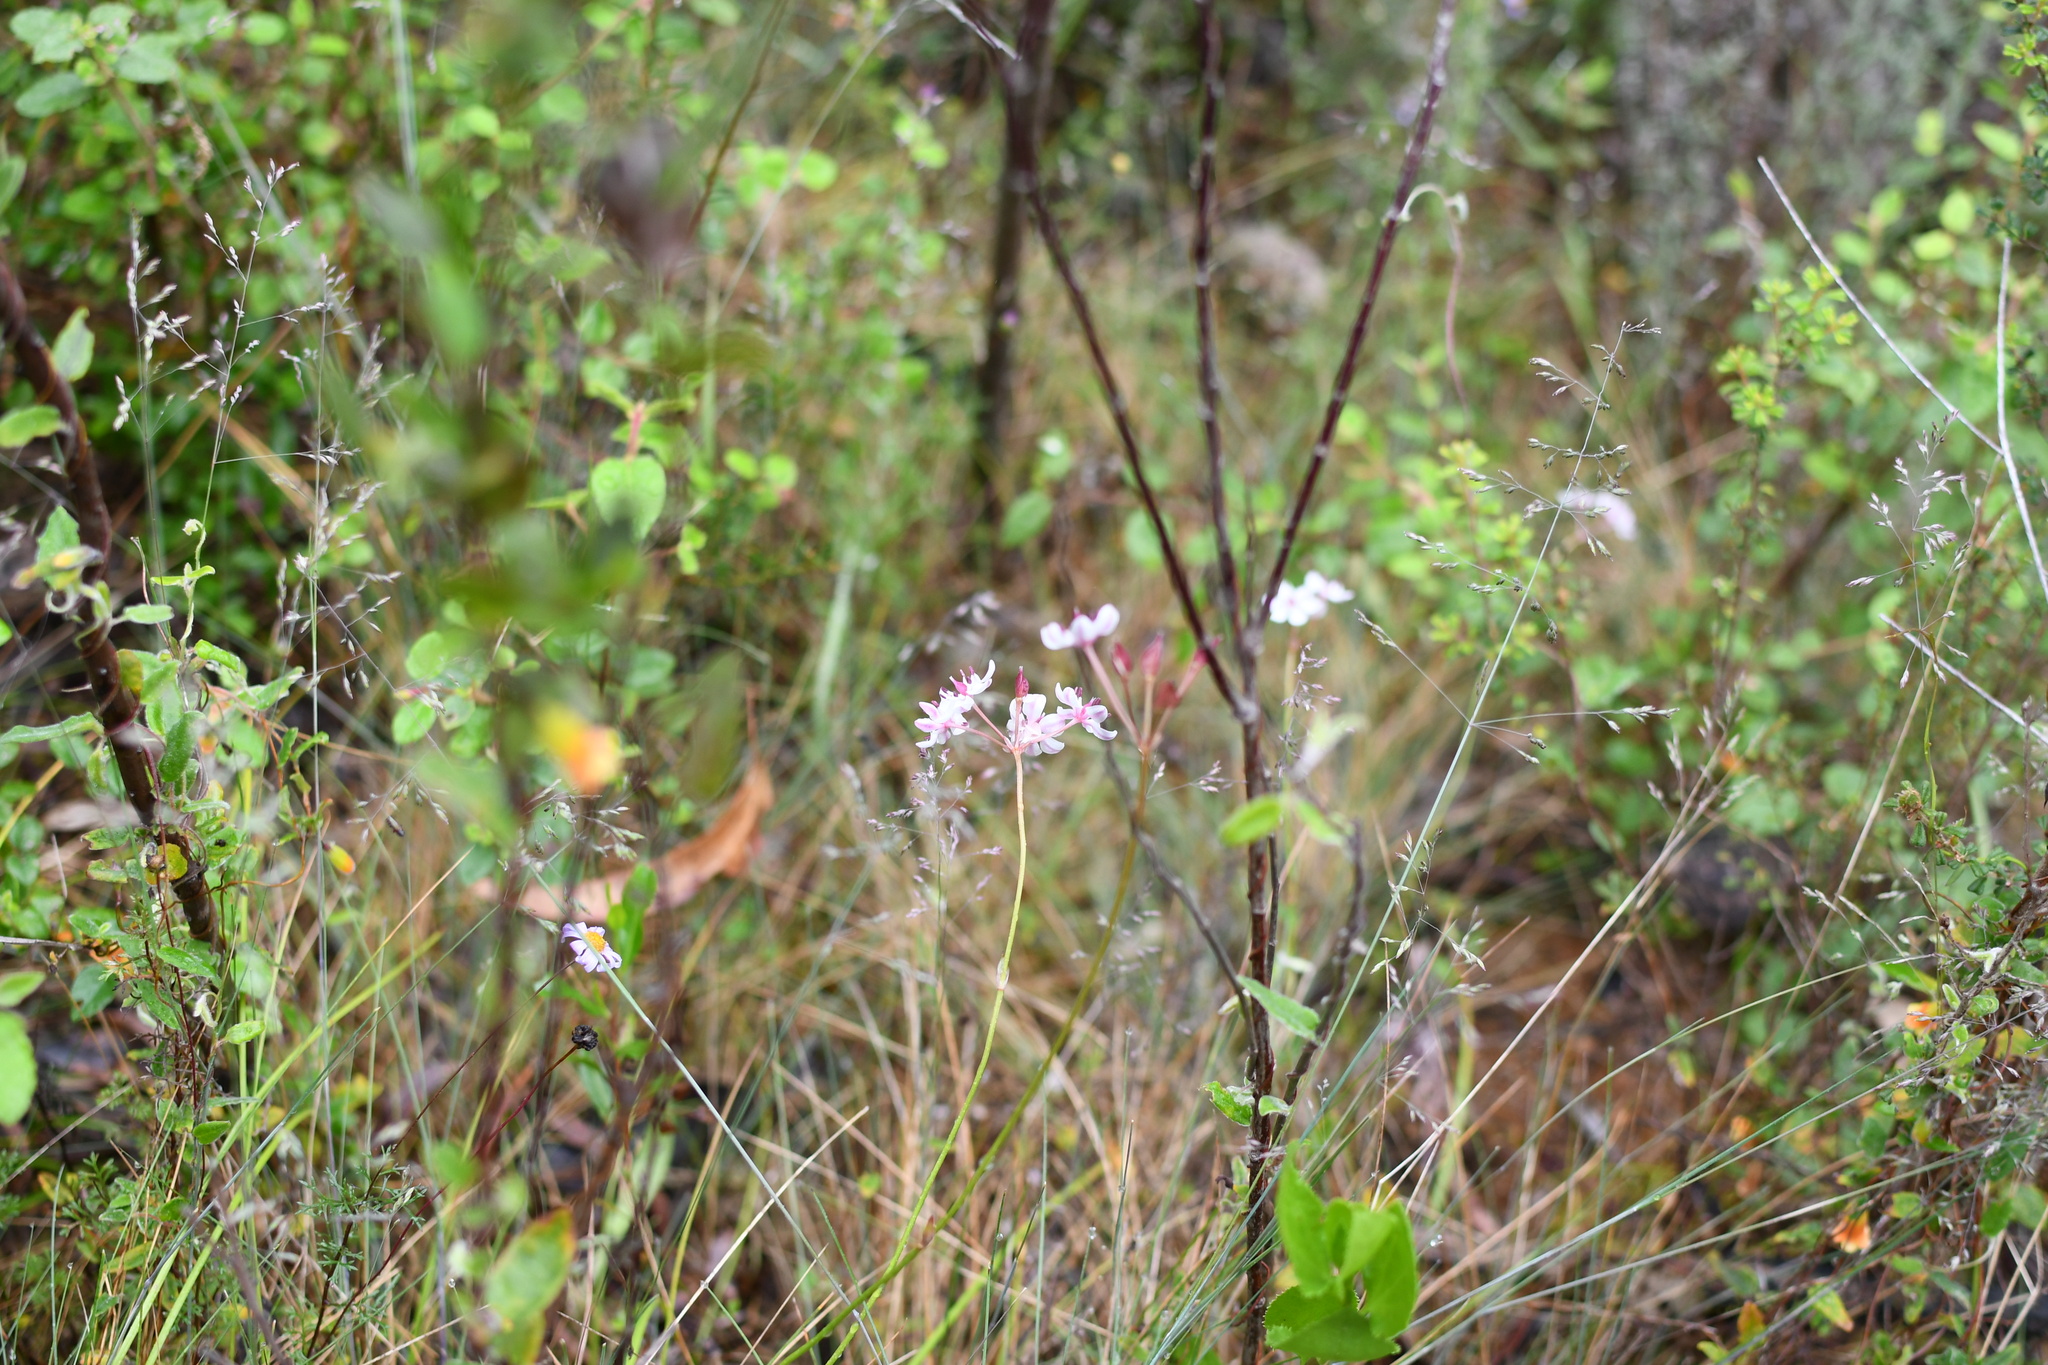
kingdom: Plantae
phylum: Tracheophyta
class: Liliopsida
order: Liliales
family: Colchicaceae
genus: Burchardia
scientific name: Burchardia umbellata
